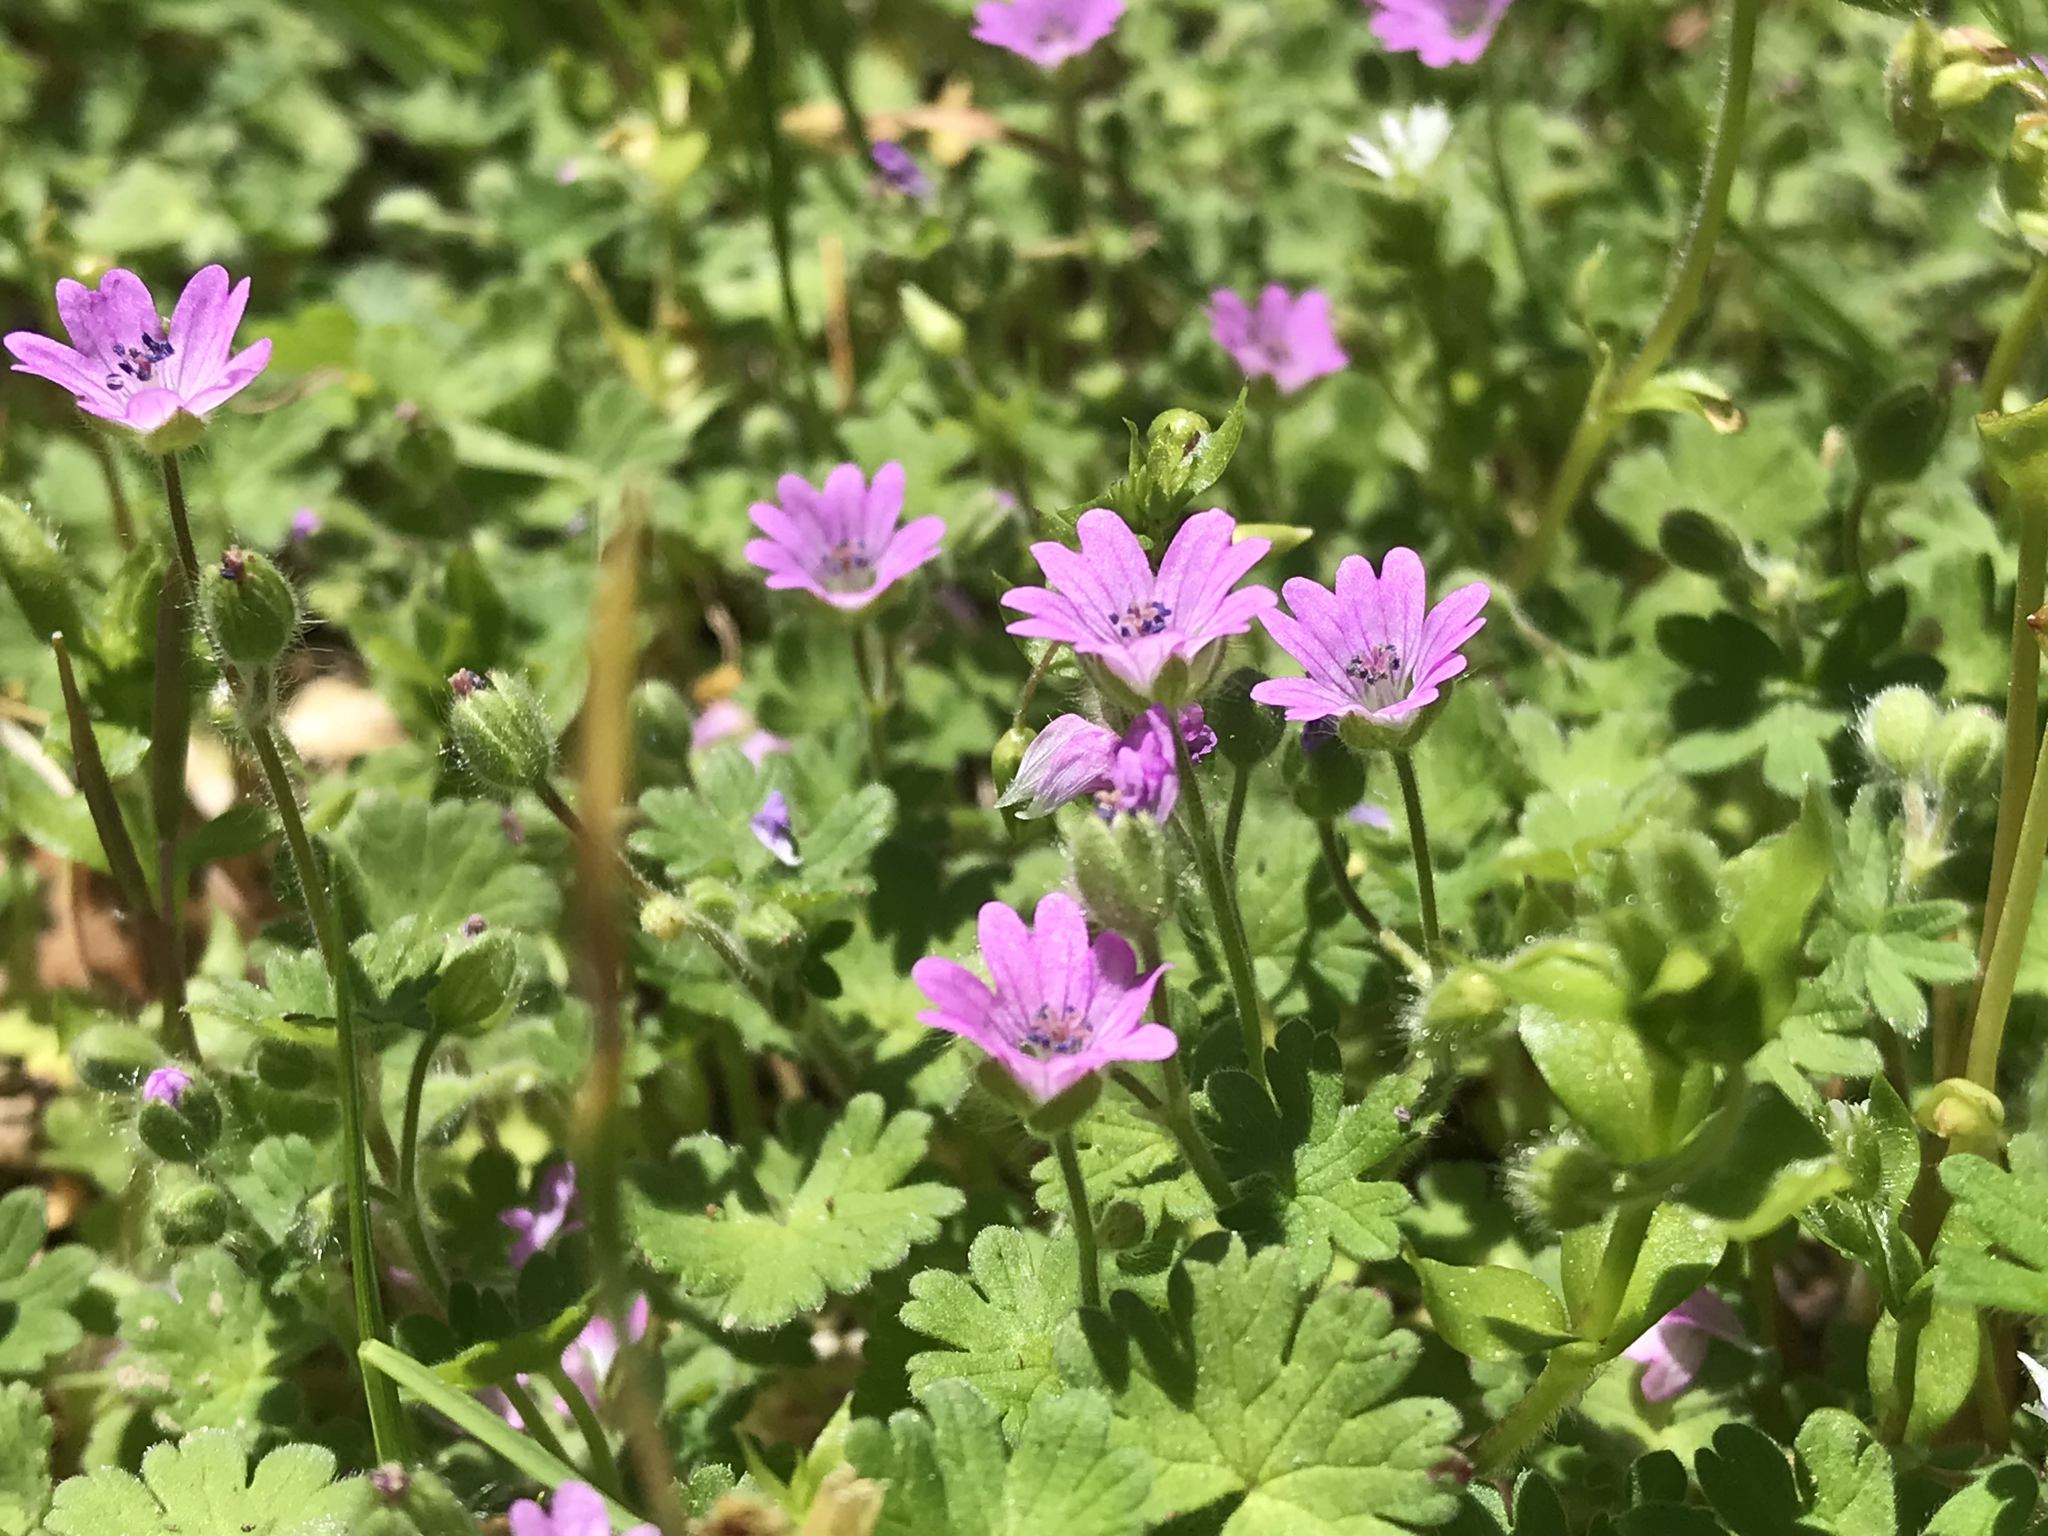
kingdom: Plantae
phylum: Tracheophyta
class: Magnoliopsida
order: Geraniales
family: Geraniaceae
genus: Geranium
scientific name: Geranium molle
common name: Dove's-foot crane's-bill
